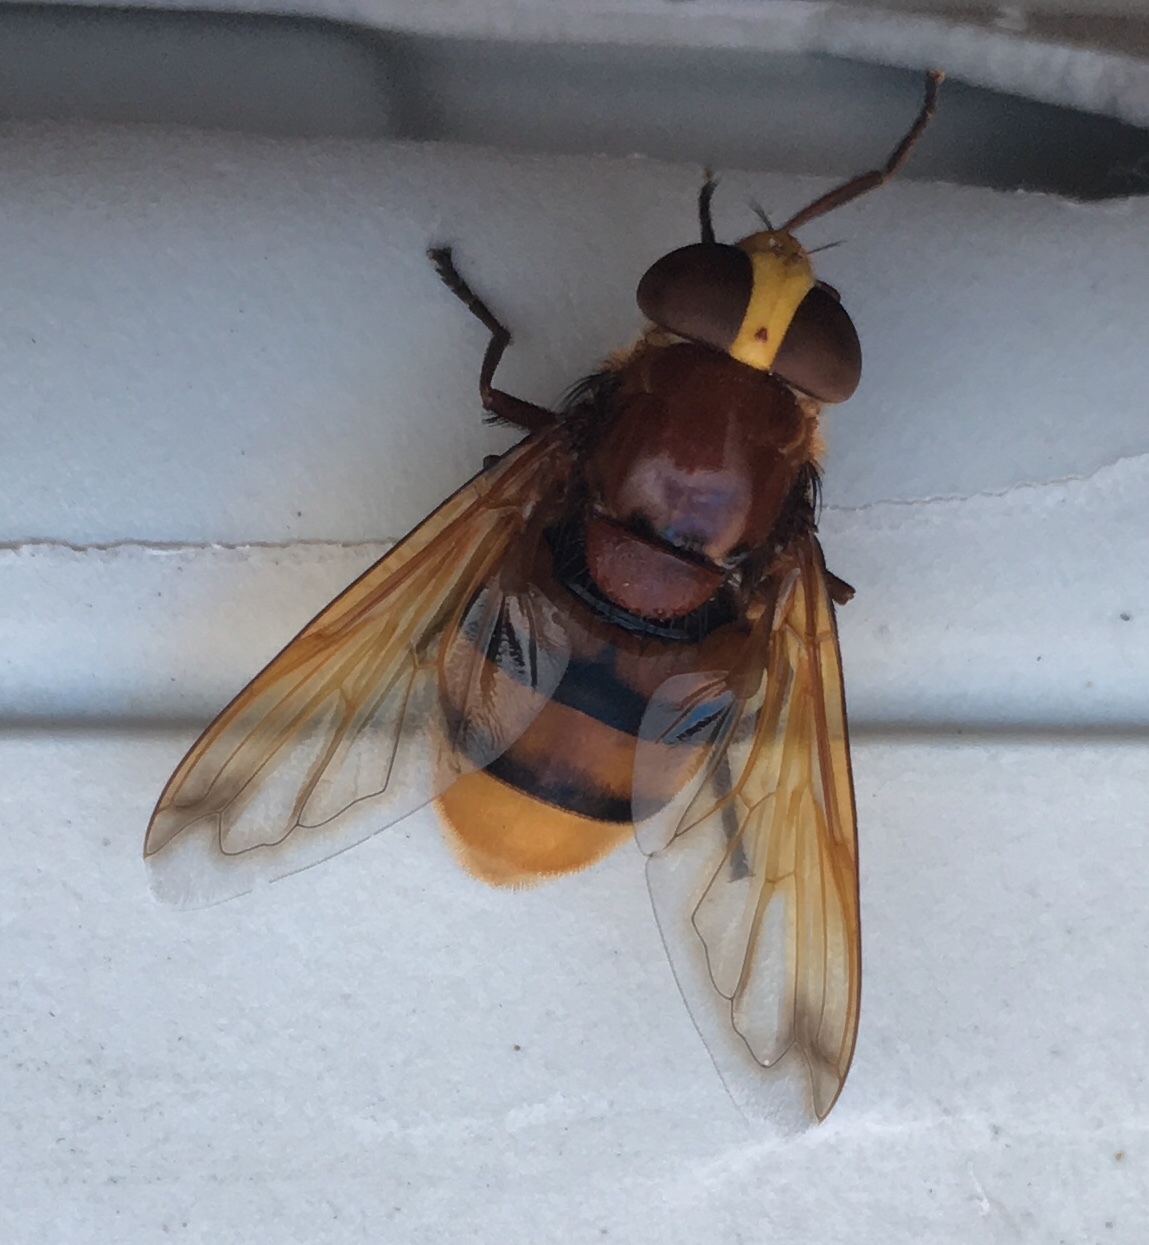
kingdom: Animalia
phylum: Arthropoda
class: Insecta
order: Diptera
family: Syrphidae
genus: Volucella
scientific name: Volucella zonaria
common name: Hornet hoverfly
